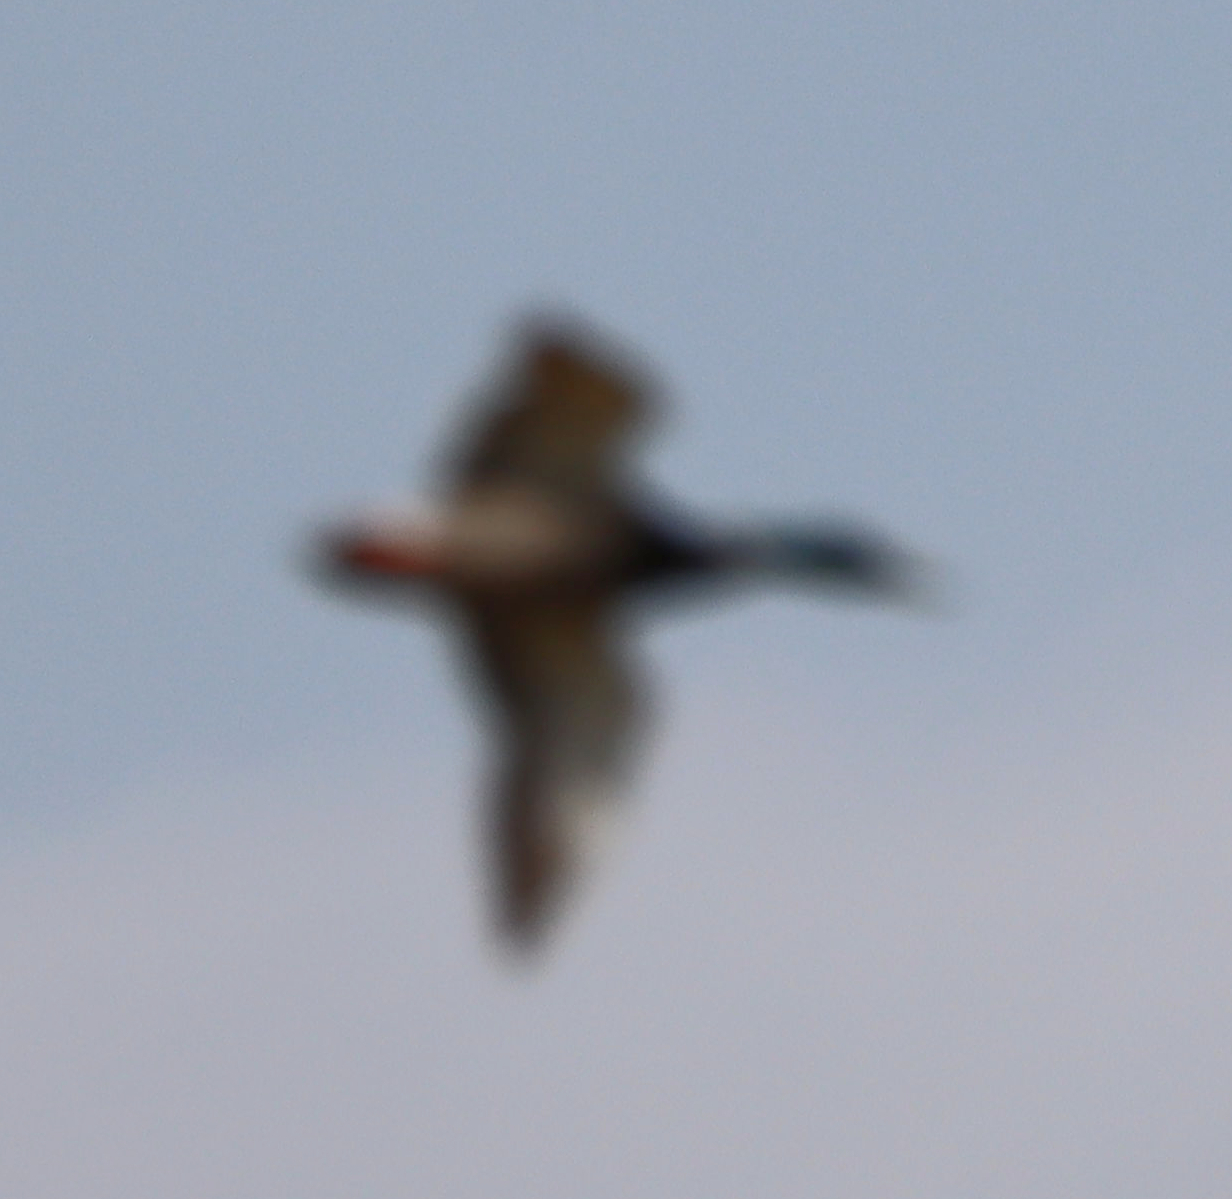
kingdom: Animalia
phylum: Chordata
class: Aves
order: Anseriformes
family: Anatidae
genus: Anas
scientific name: Anas platyrhynchos
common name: Mallard
